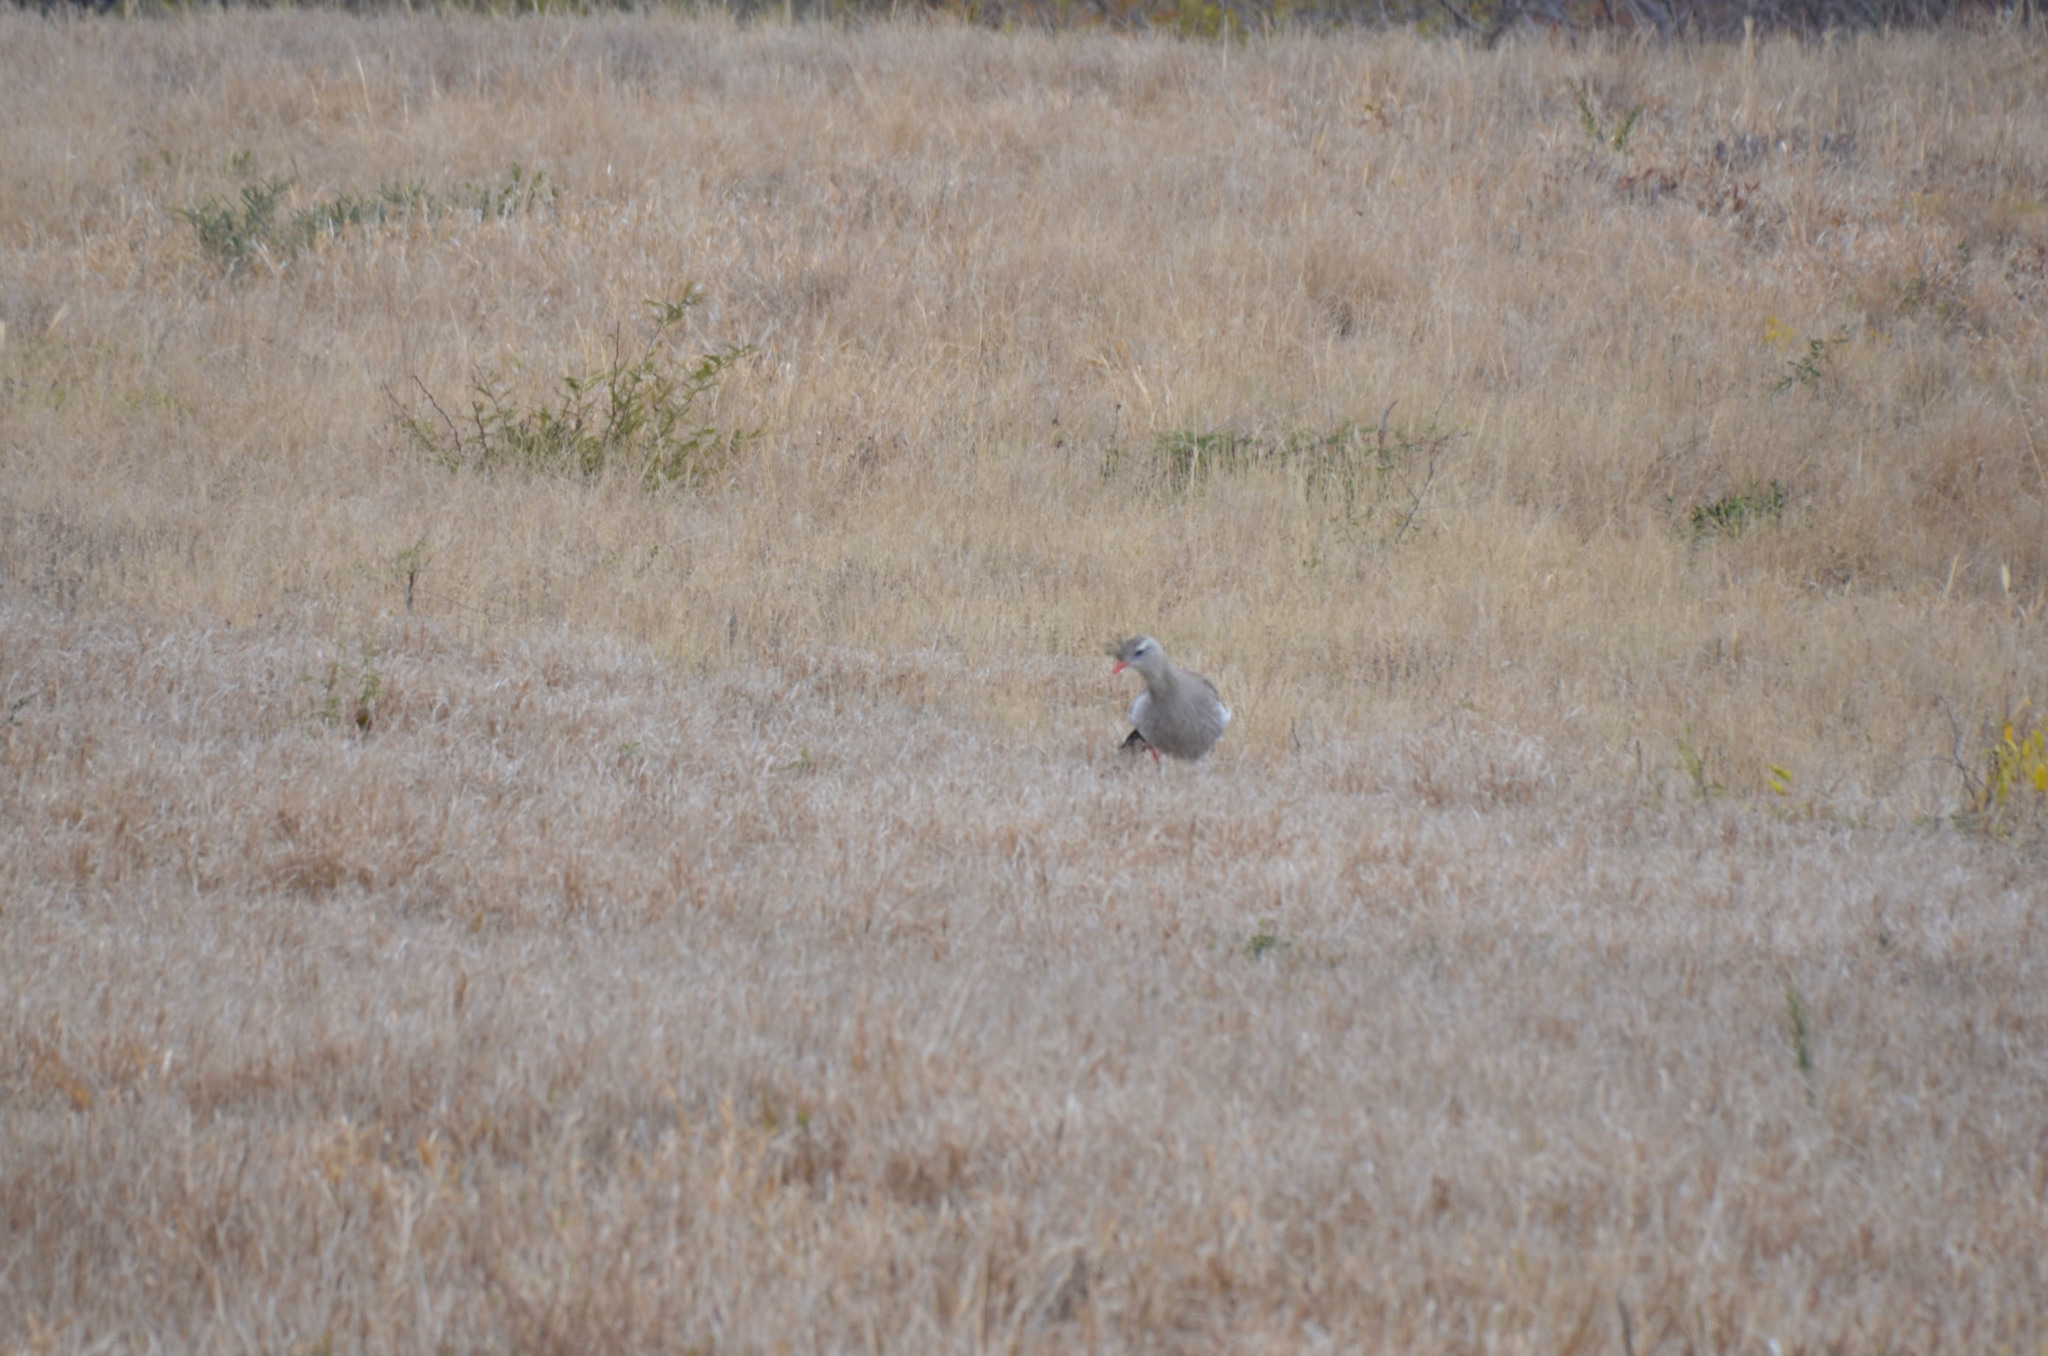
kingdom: Animalia
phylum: Chordata
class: Aves
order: Cariamiformes
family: Cariamidae
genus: Cariama
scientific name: Cariama cristata
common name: Red-legged seriema
